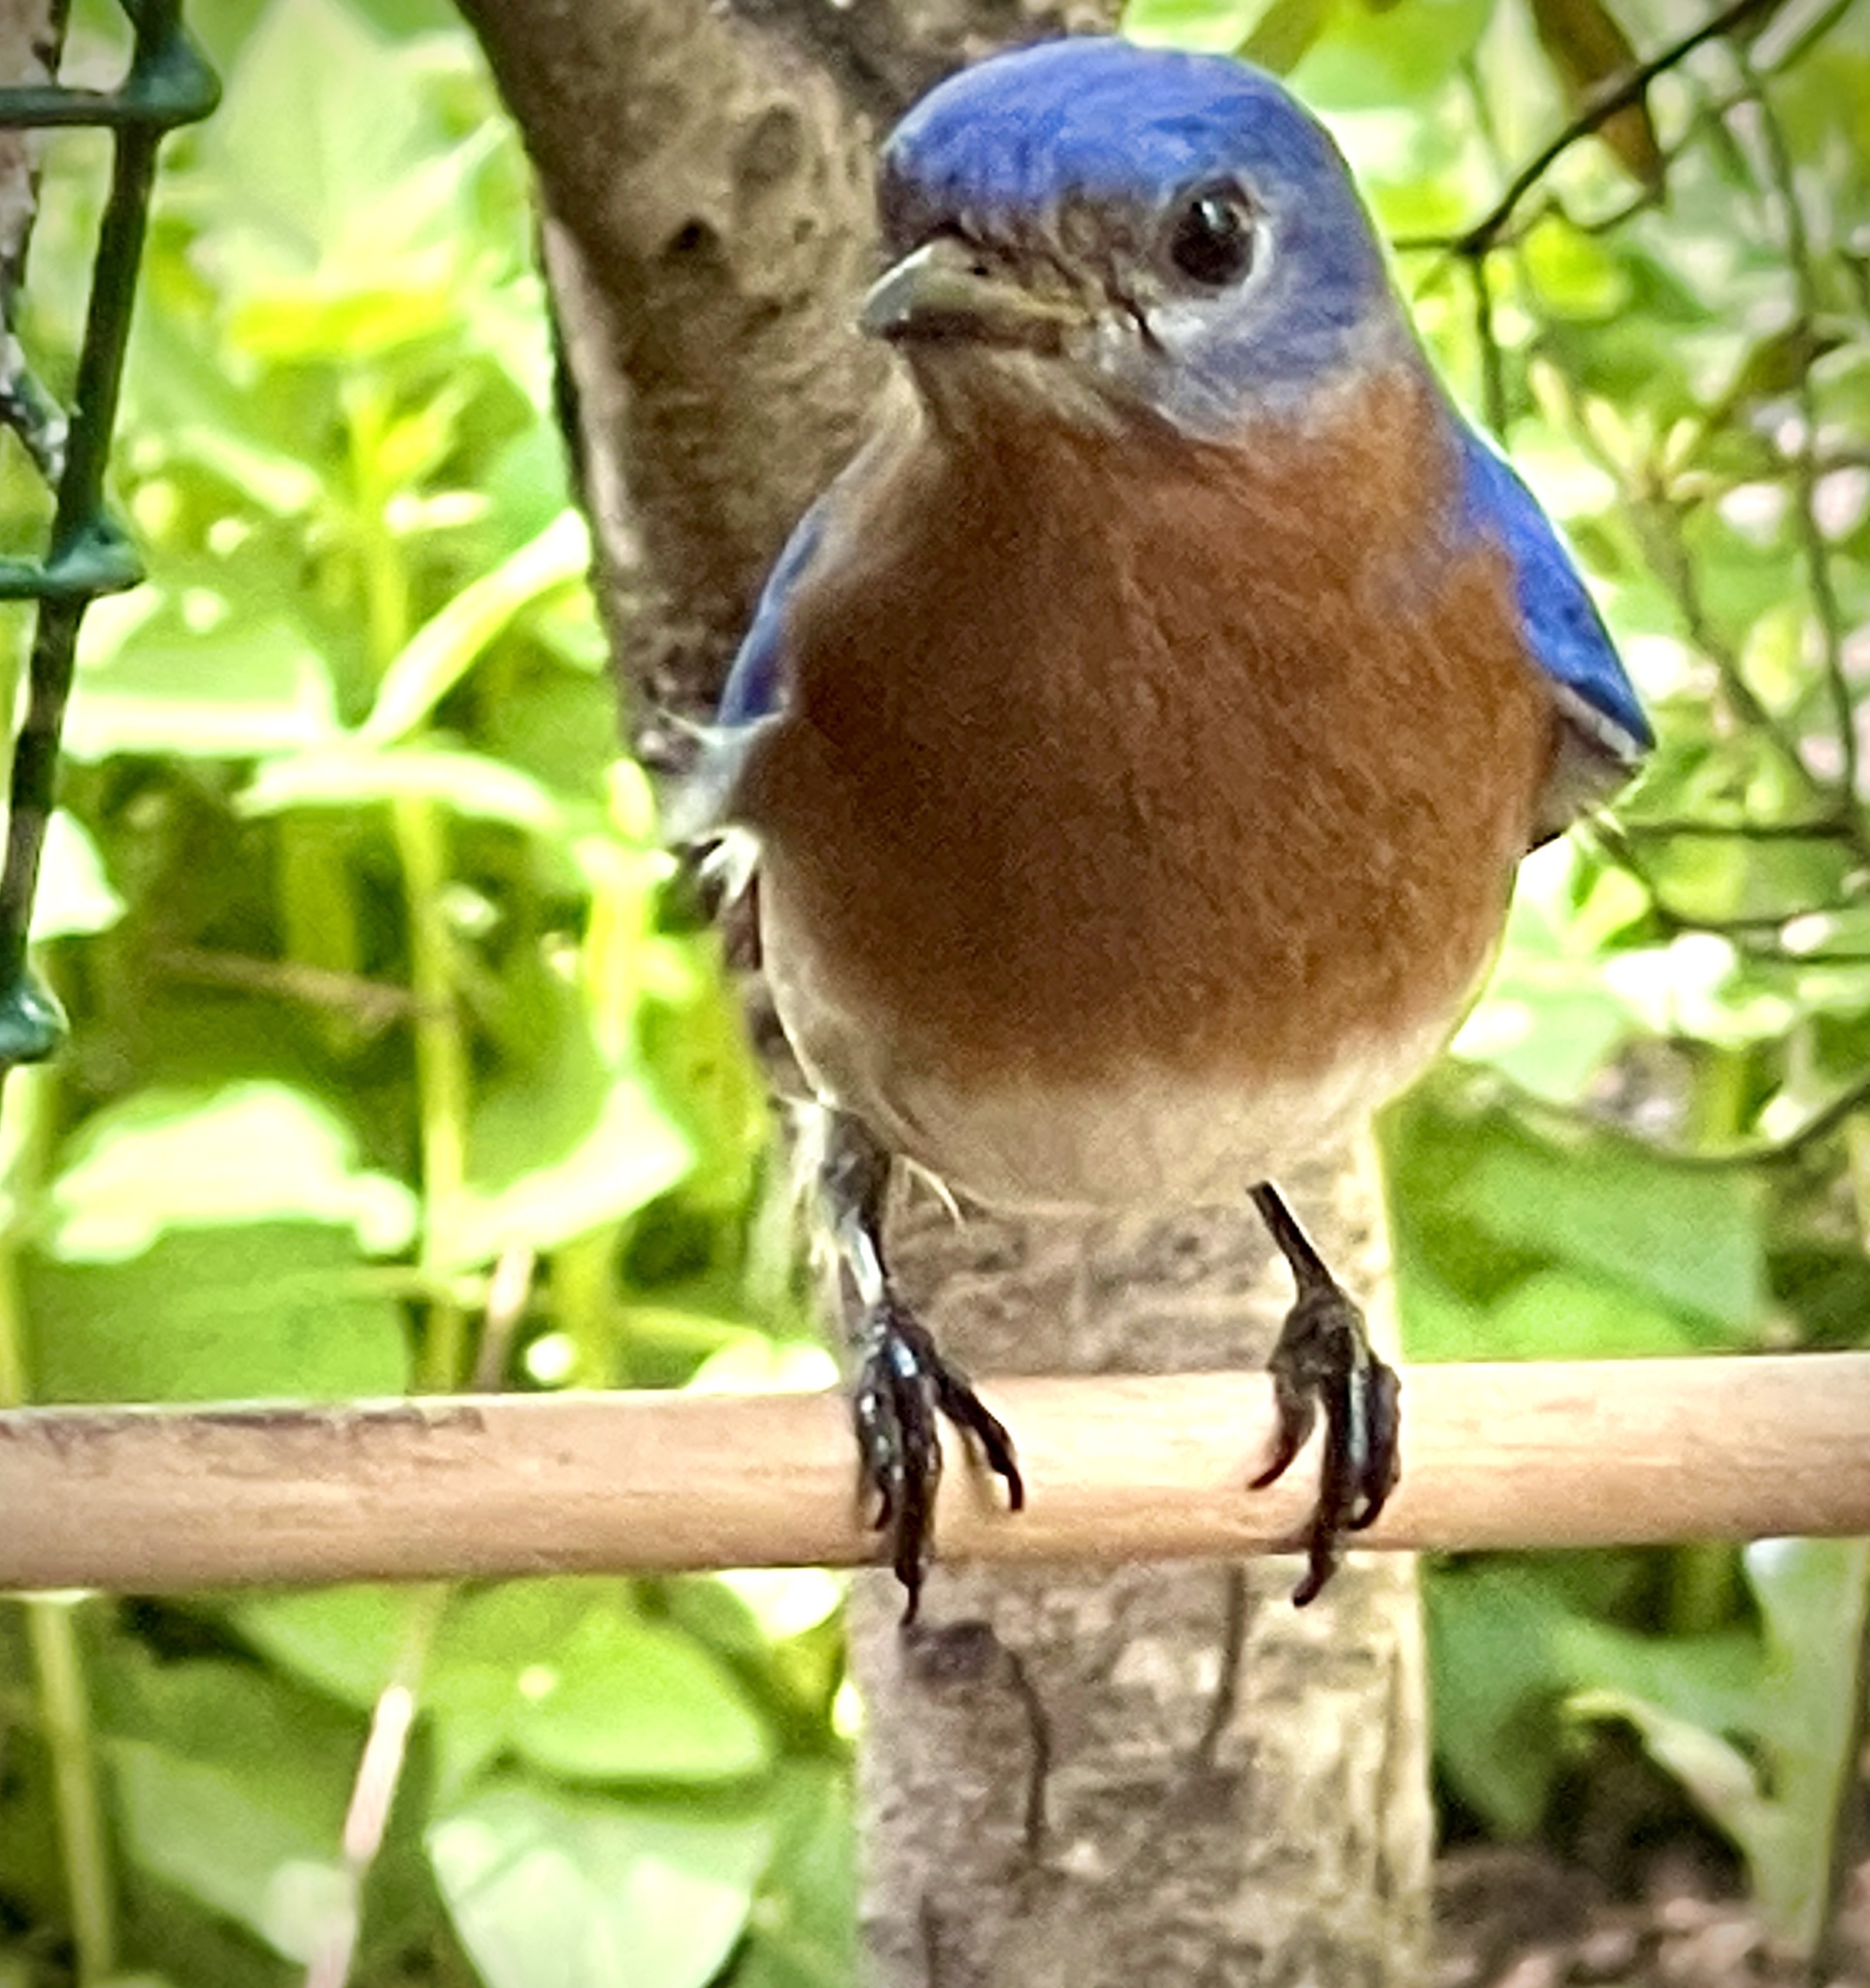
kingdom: Animalia
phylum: Chordata
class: Aves
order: Passeriformes
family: Turdidae
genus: Sialia
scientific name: Sialia sialis
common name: Eastern bluebird
